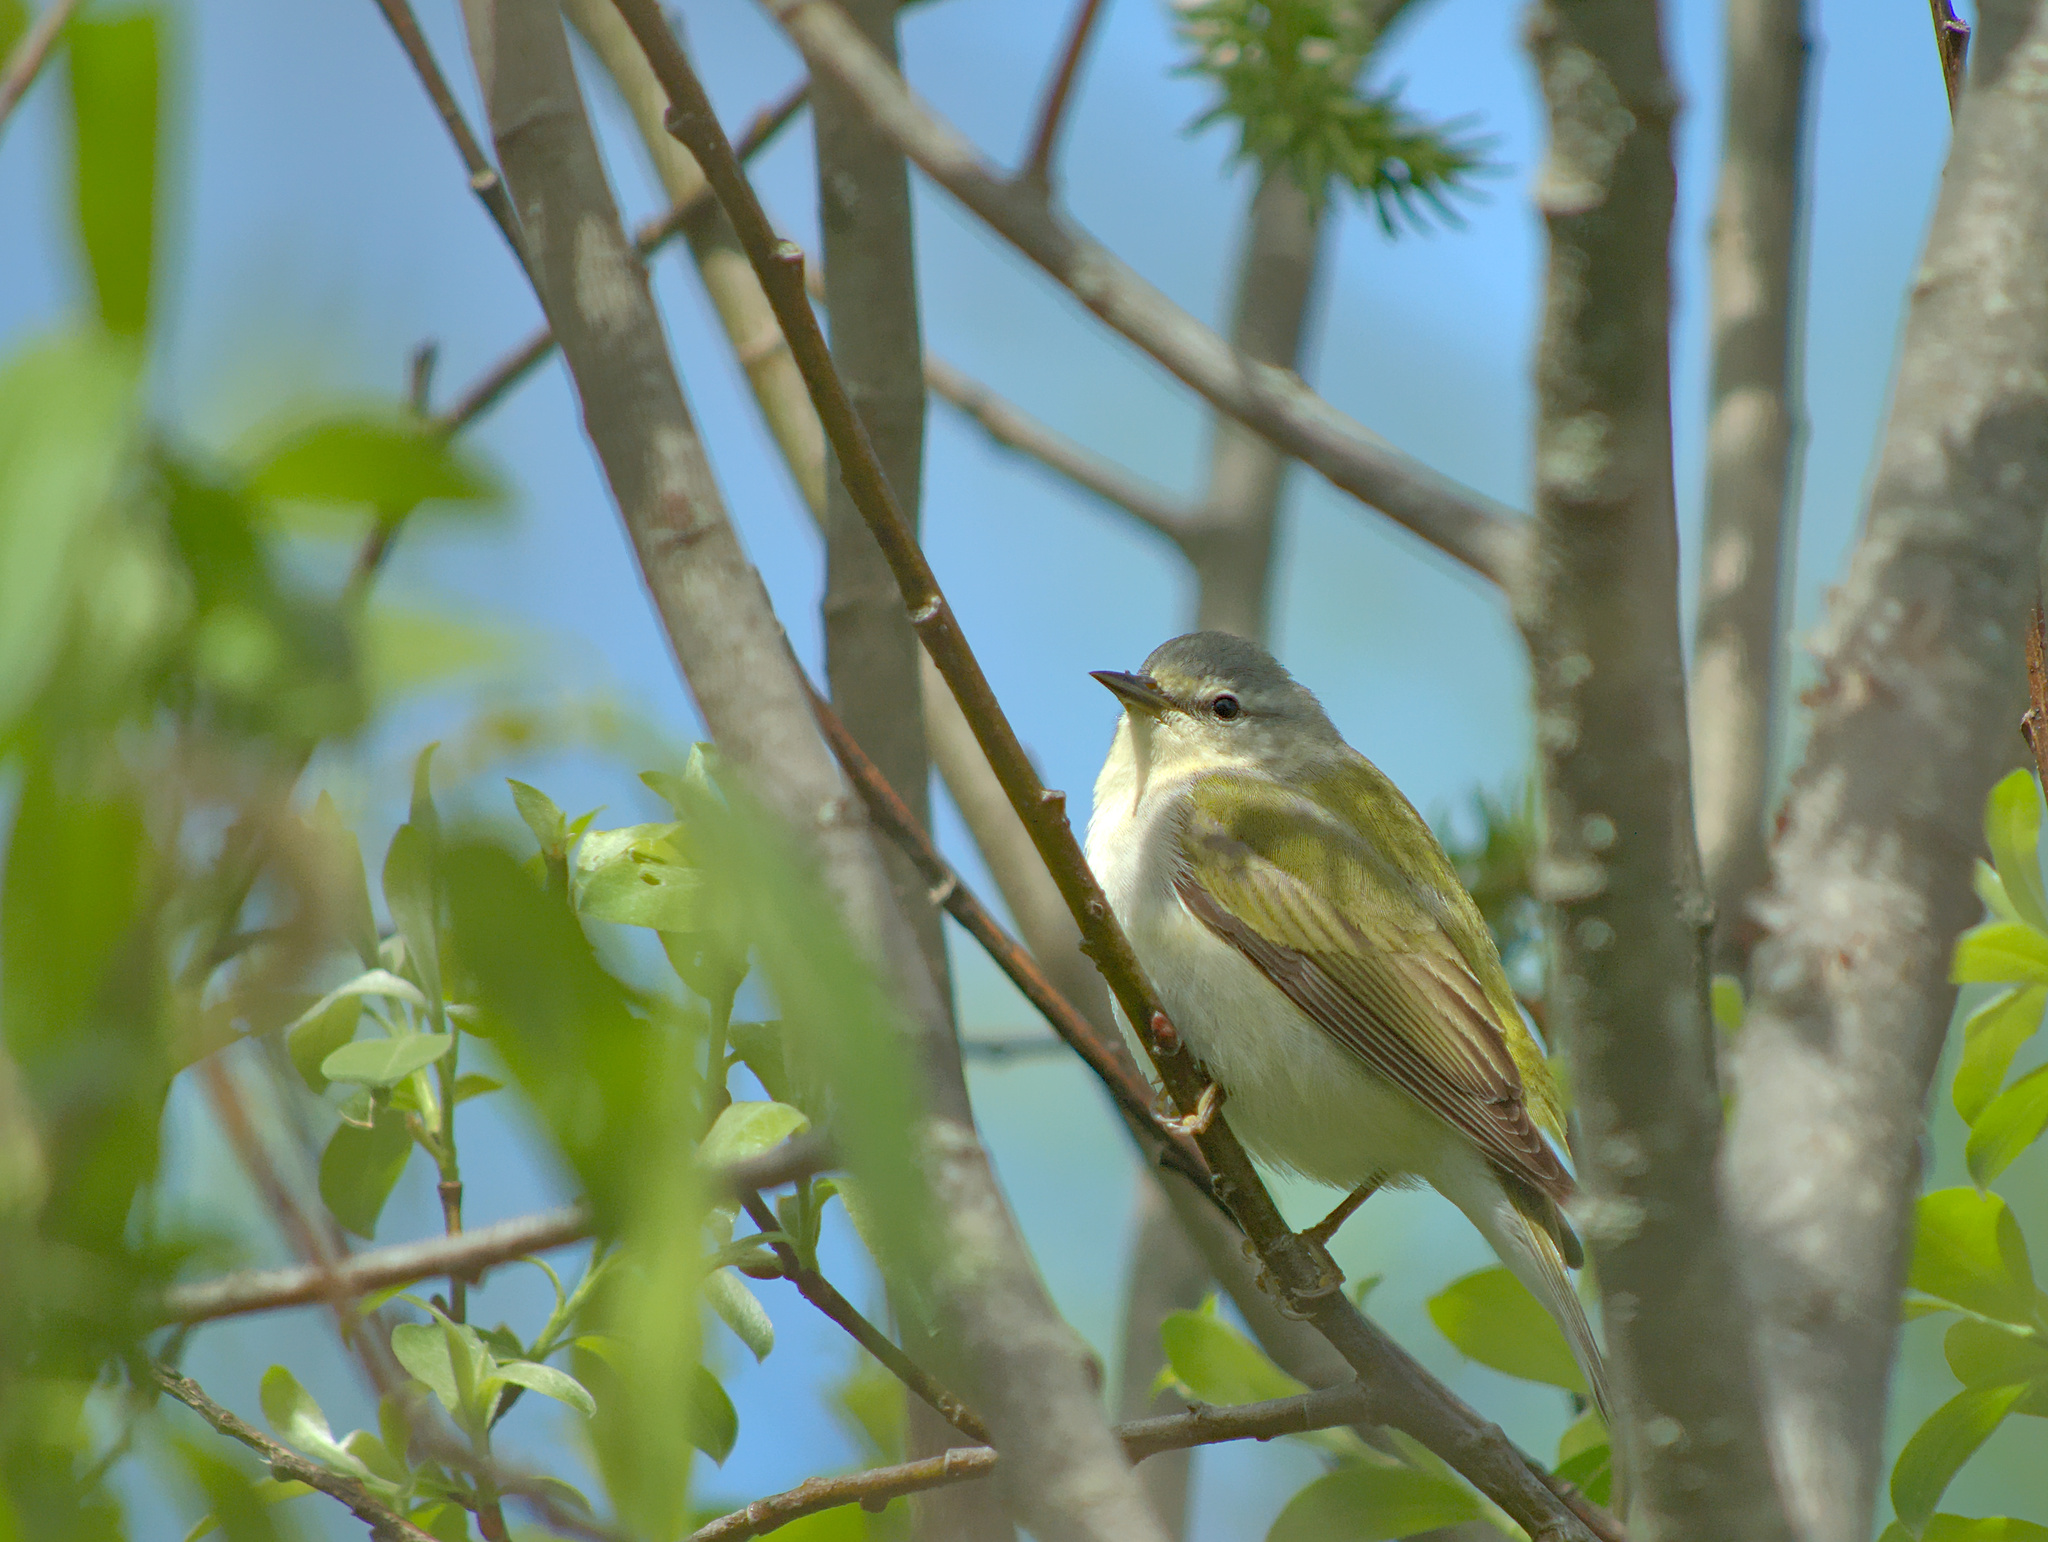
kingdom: Animalia
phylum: Chordata
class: Aves
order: Passeriformes
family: Parulidae
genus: Leiothlypis
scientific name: Leiothlypis peregrina
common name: Tennessee warbler
